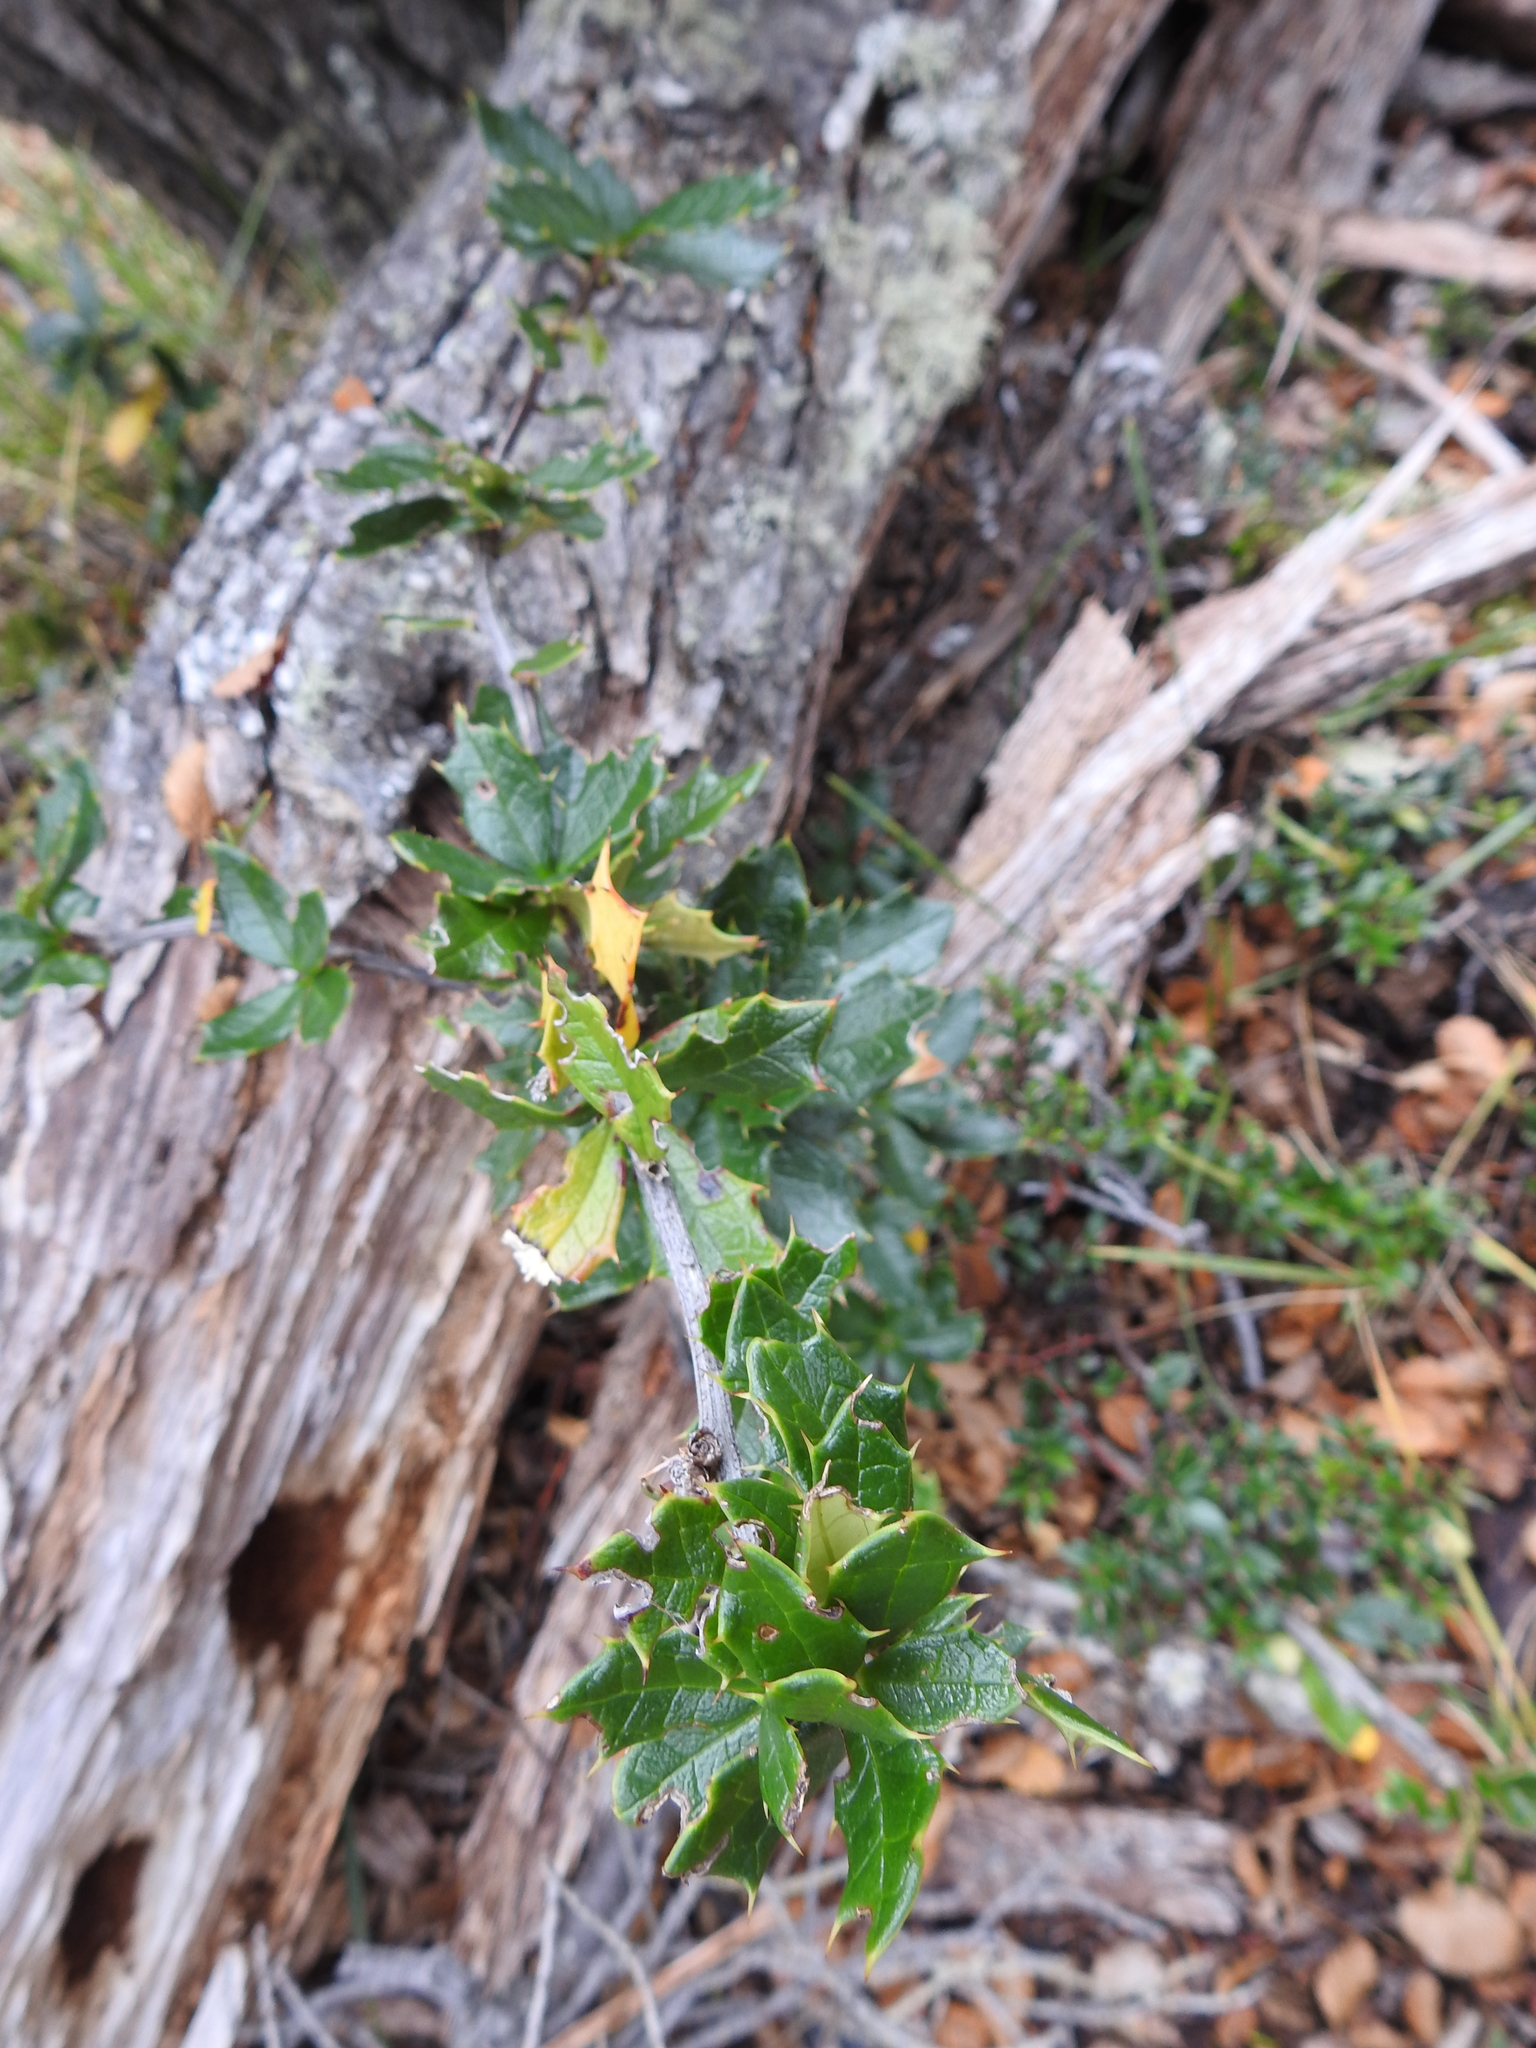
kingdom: Plantae
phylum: Tracheophyta
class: Magnoliopsida
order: Ranunculales
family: Berberidaceae
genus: Berberis
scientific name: Berberis ilicifolia
